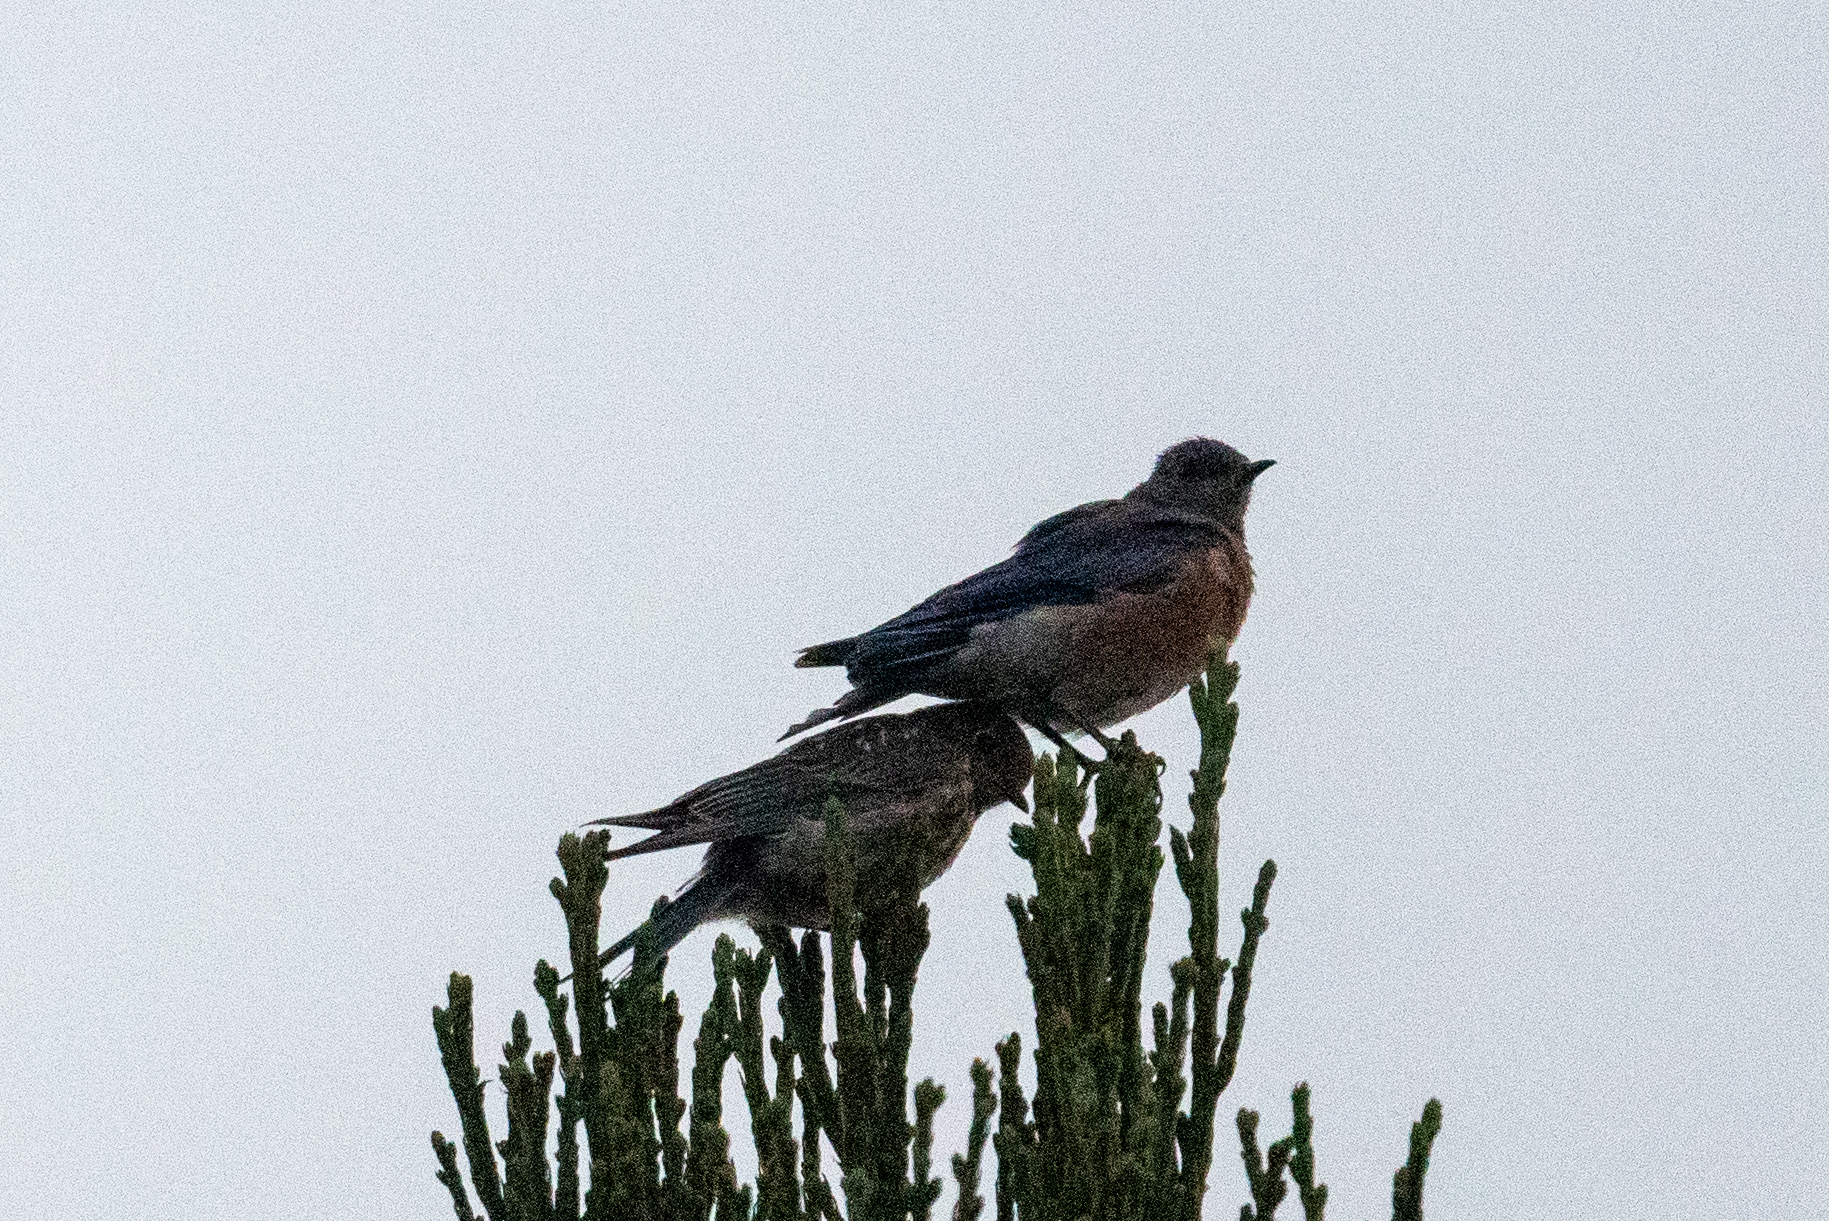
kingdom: Animalia
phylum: Chordata
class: Aves
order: Passeriformes
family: Turdidae
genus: Sialia
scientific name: Sialia mexicana
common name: Western bluebird
